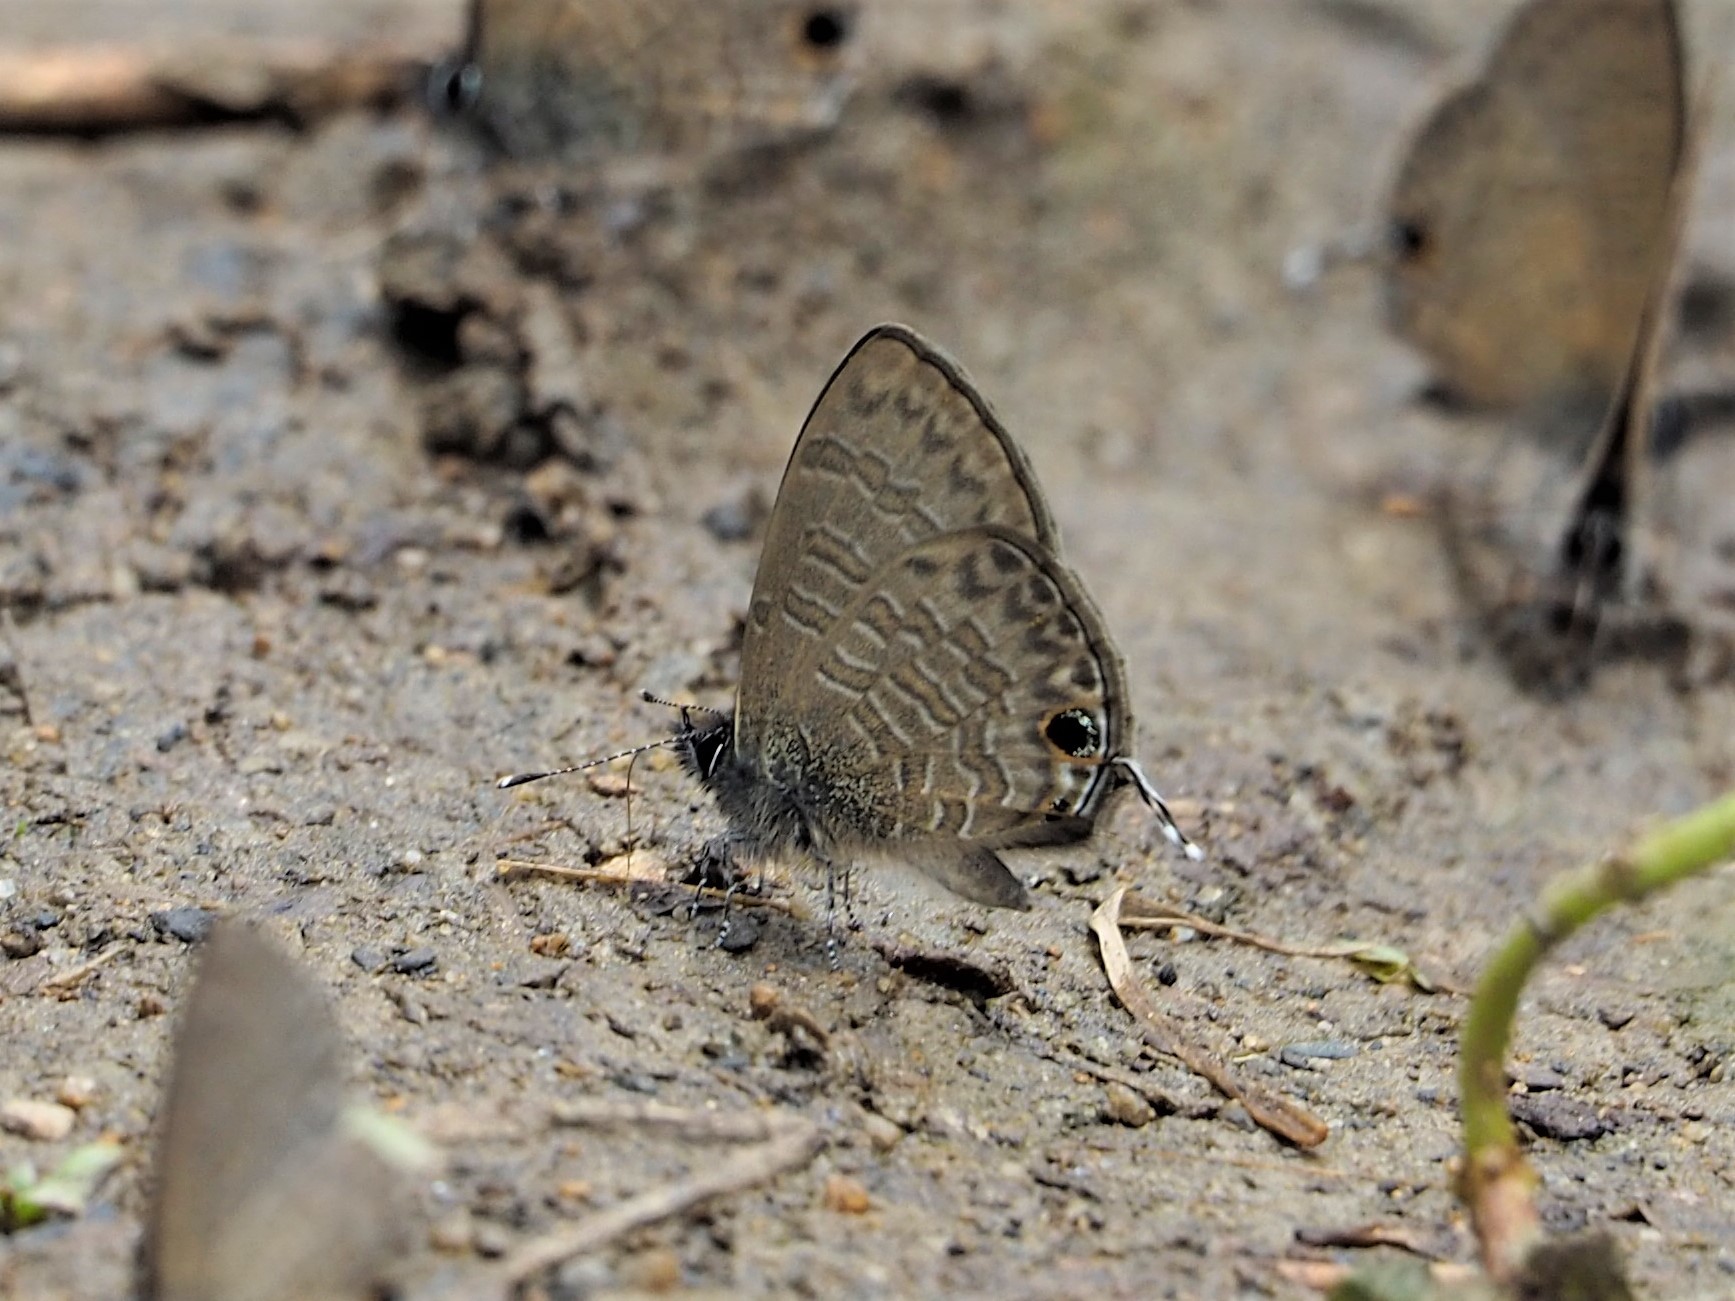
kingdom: Animalia
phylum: Arthropoda
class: Insecta
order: Lepidoptera
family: Lycaenidae
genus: Prosotas
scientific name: Prosotas nora
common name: Common line blue
